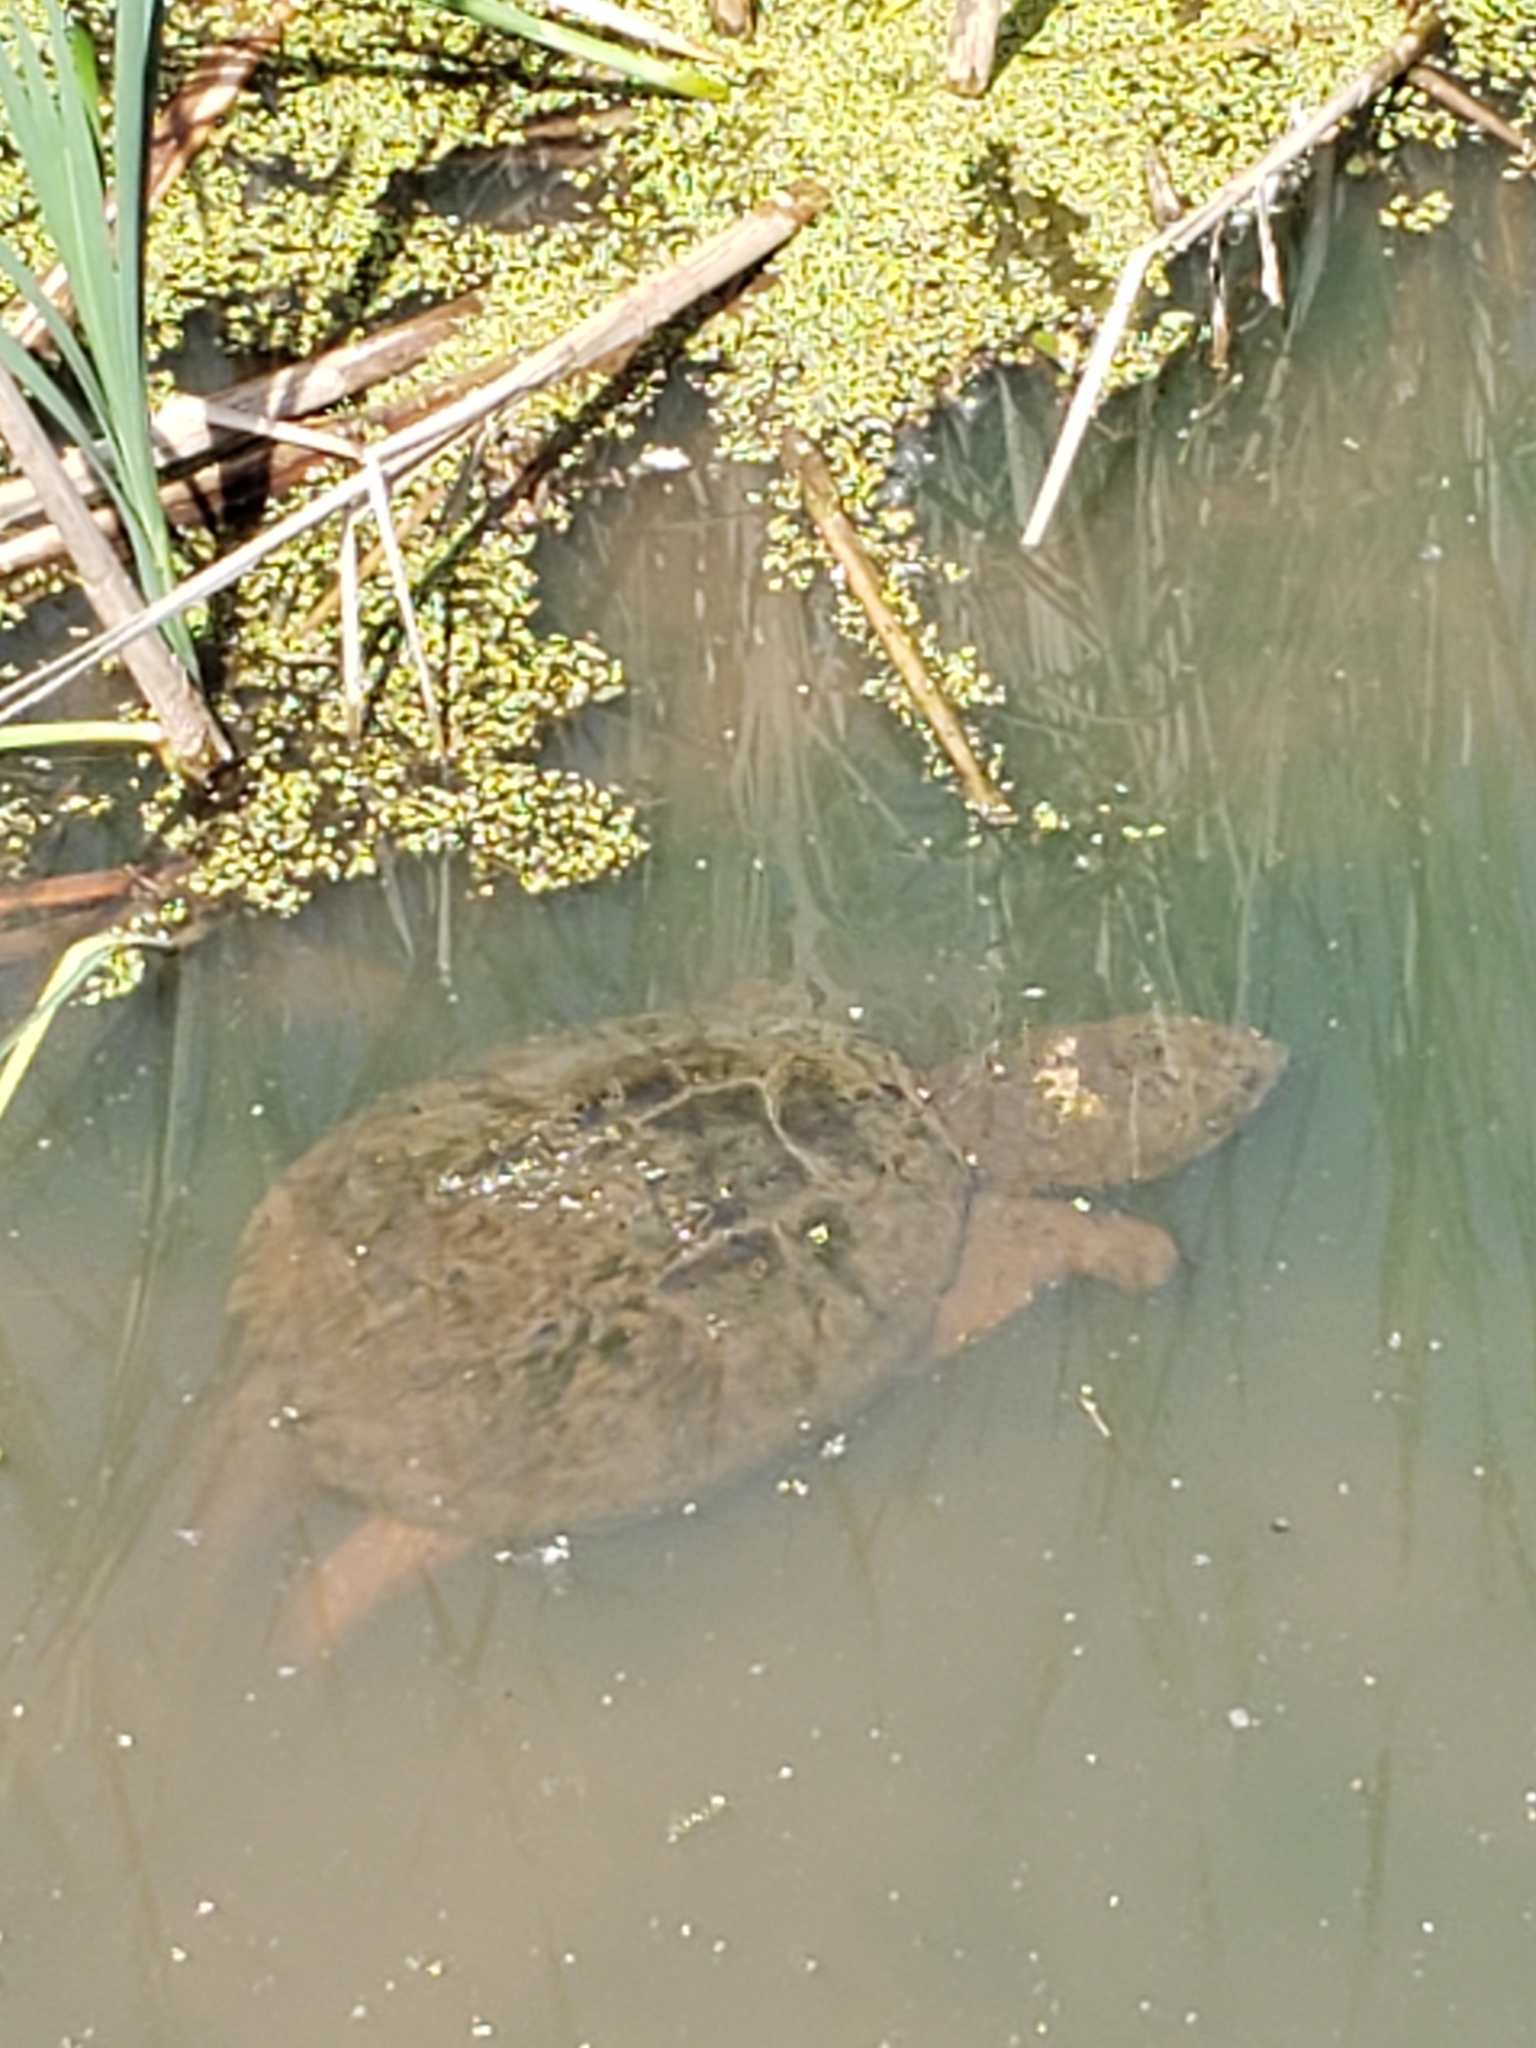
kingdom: Animalia
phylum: Chordata
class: Testudines
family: Chelydridae
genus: Chelydra
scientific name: Chelydra serpentina
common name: Common snapping turtle
